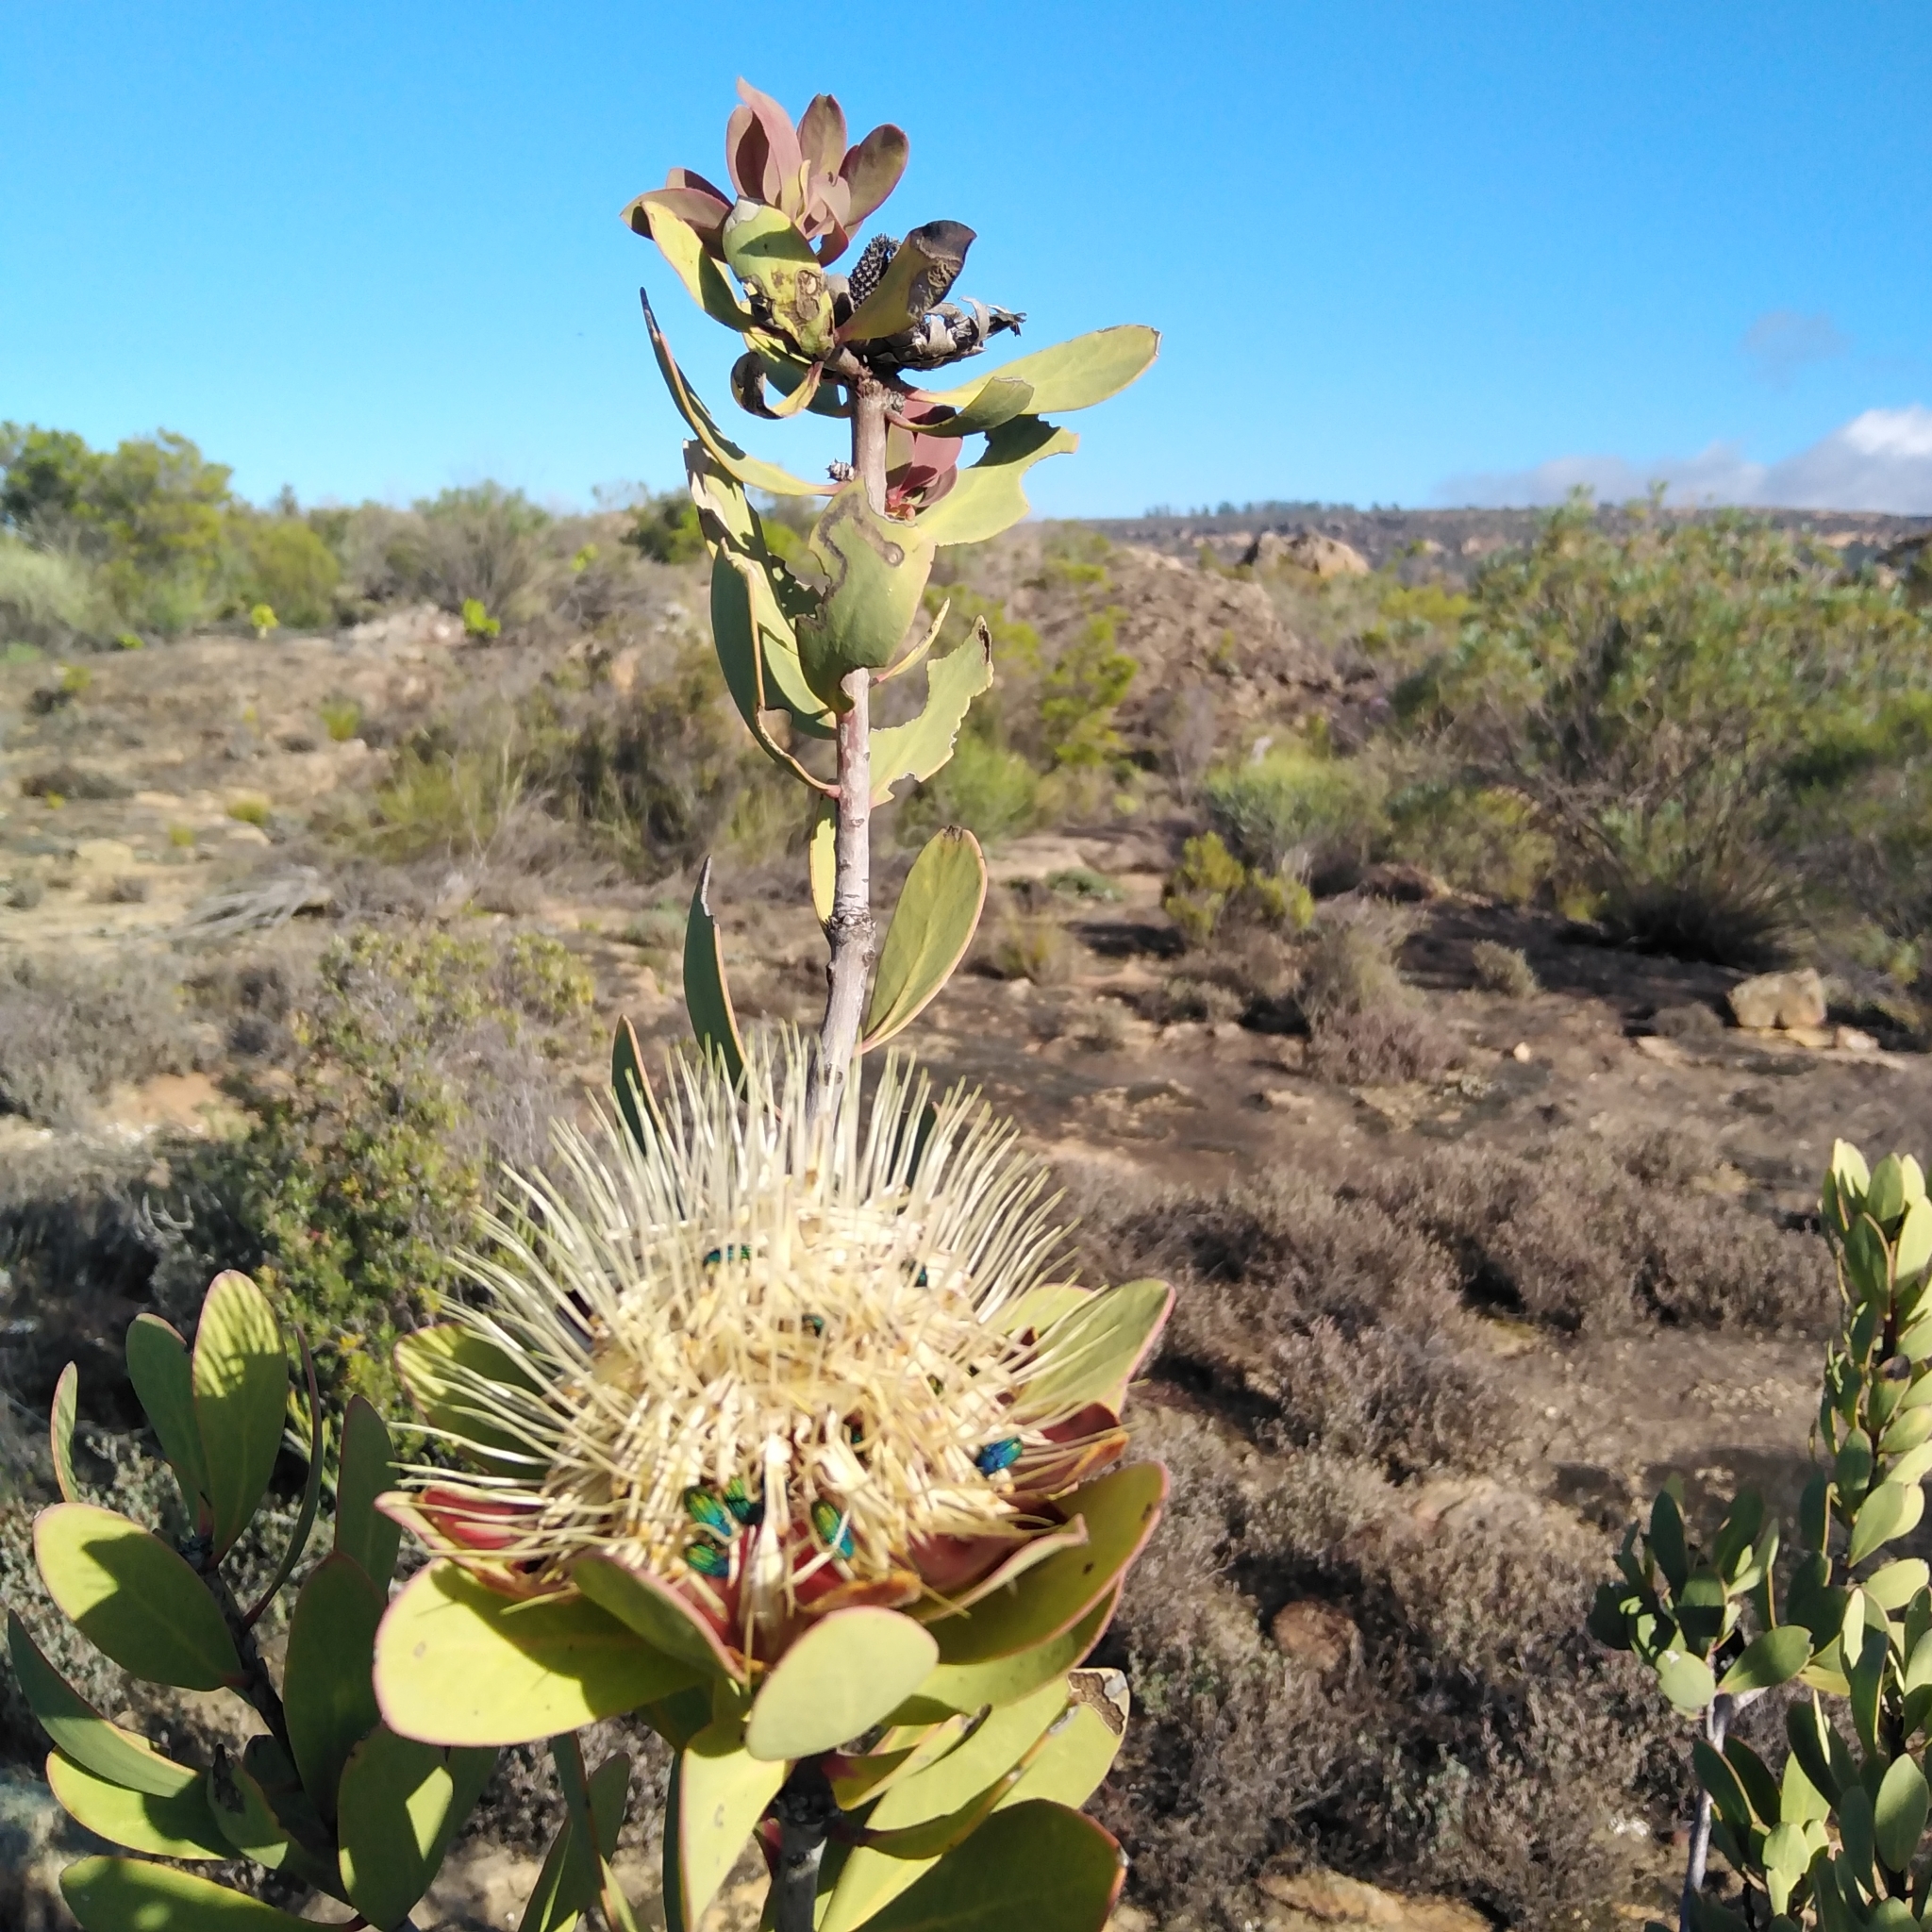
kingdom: Plantae
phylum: Tracheophyta
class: Magnoliopsida
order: Proteales
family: Proteaceae
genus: Protea
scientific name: Protea glabra
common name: Chestnut sugarbush
